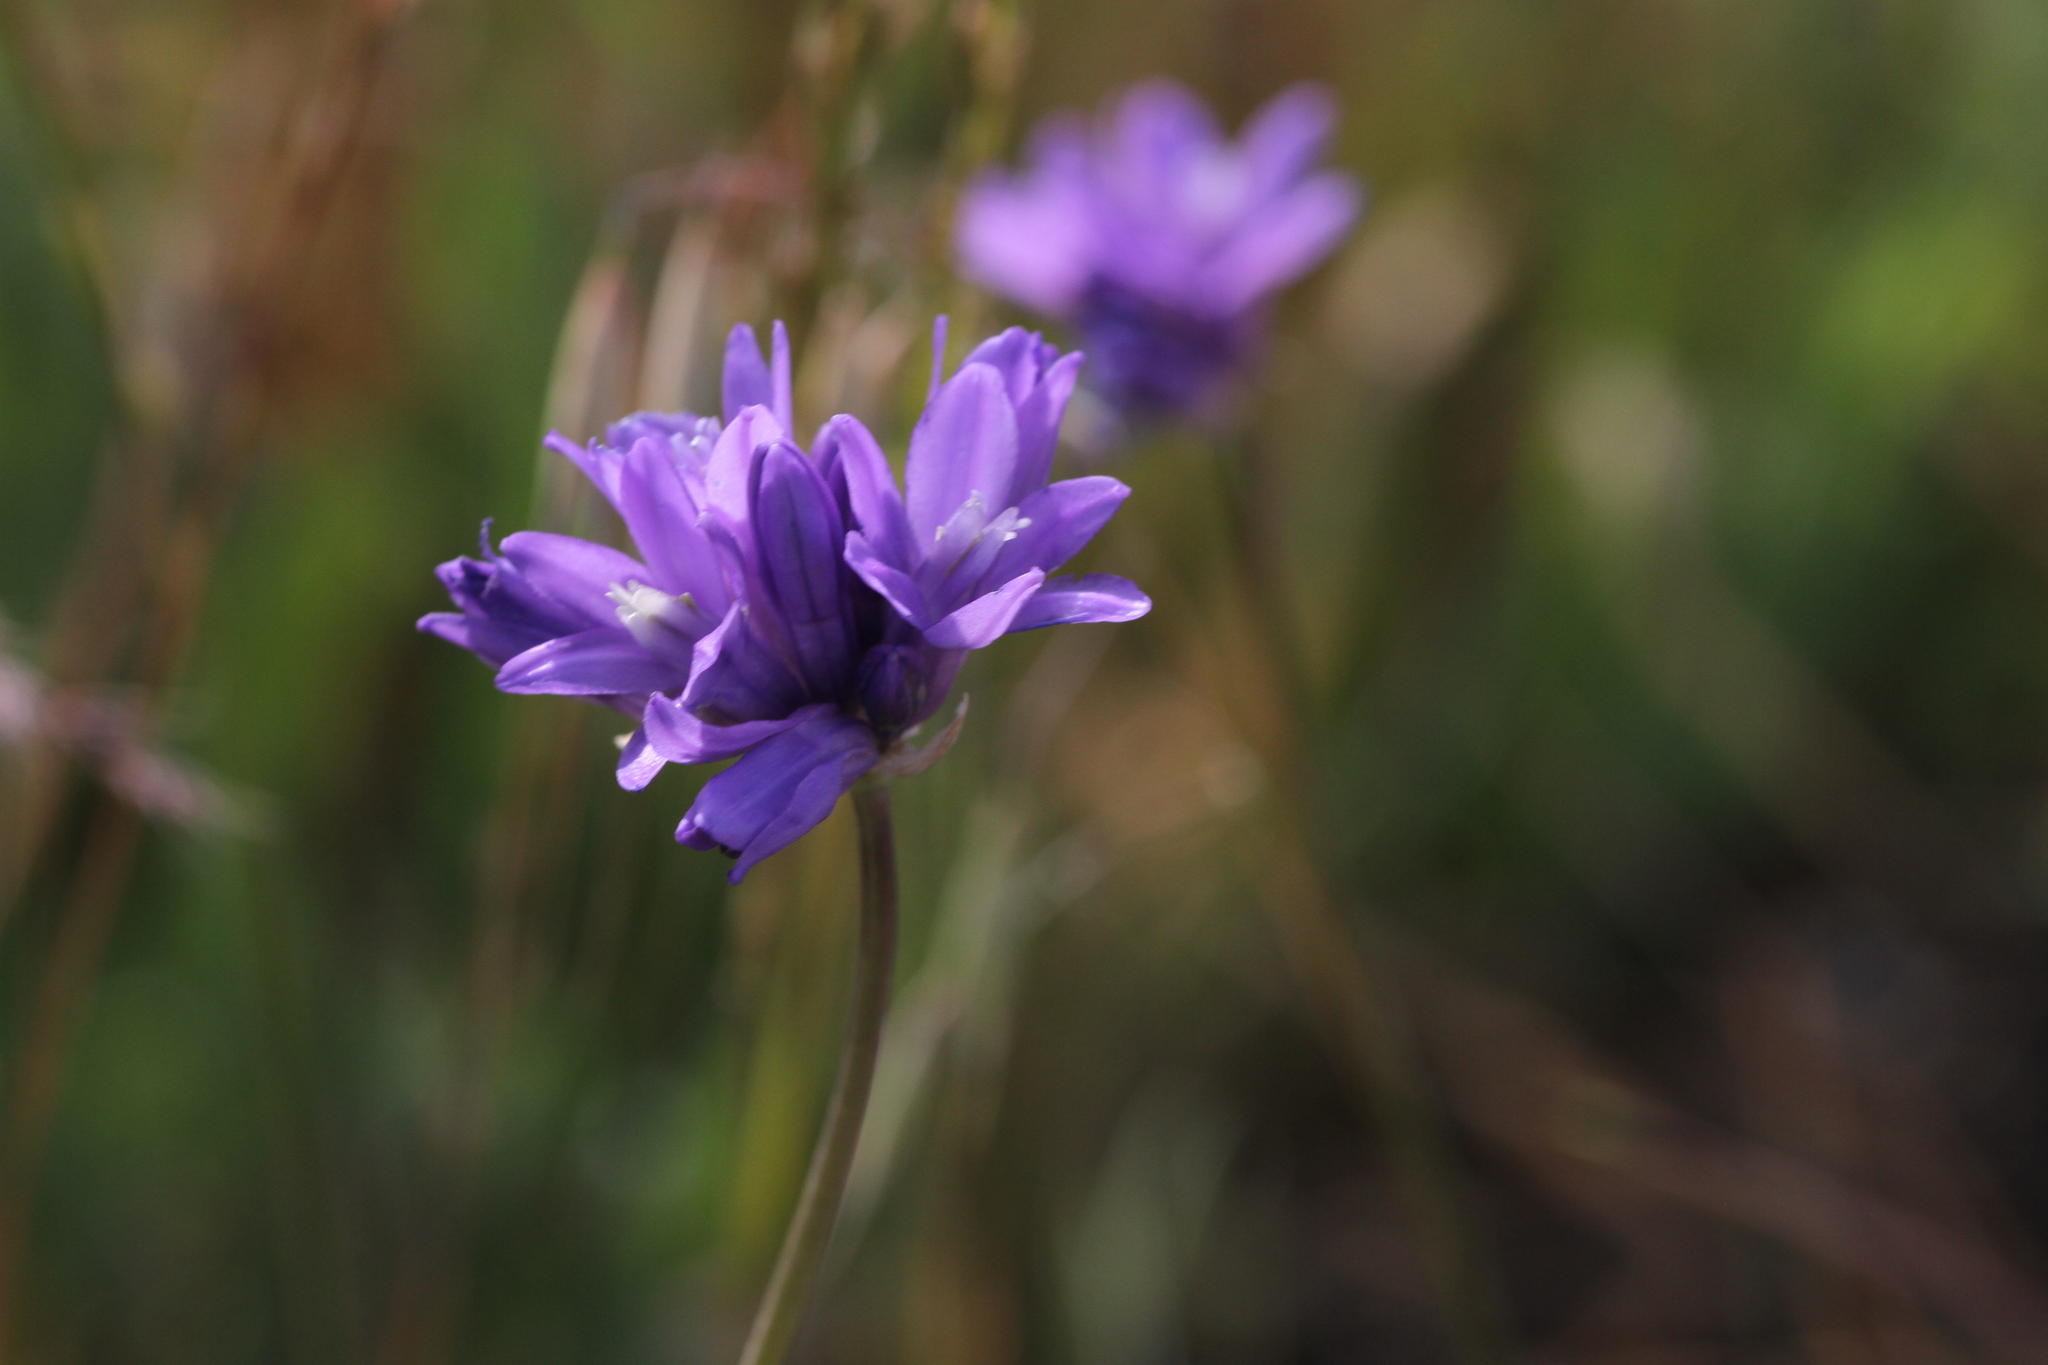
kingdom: Plantae
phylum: Tracheophyta
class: Liliopsida
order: Asparagales
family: Asparagaceae
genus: Dipterostemon
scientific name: Dipterostemon capitatus
